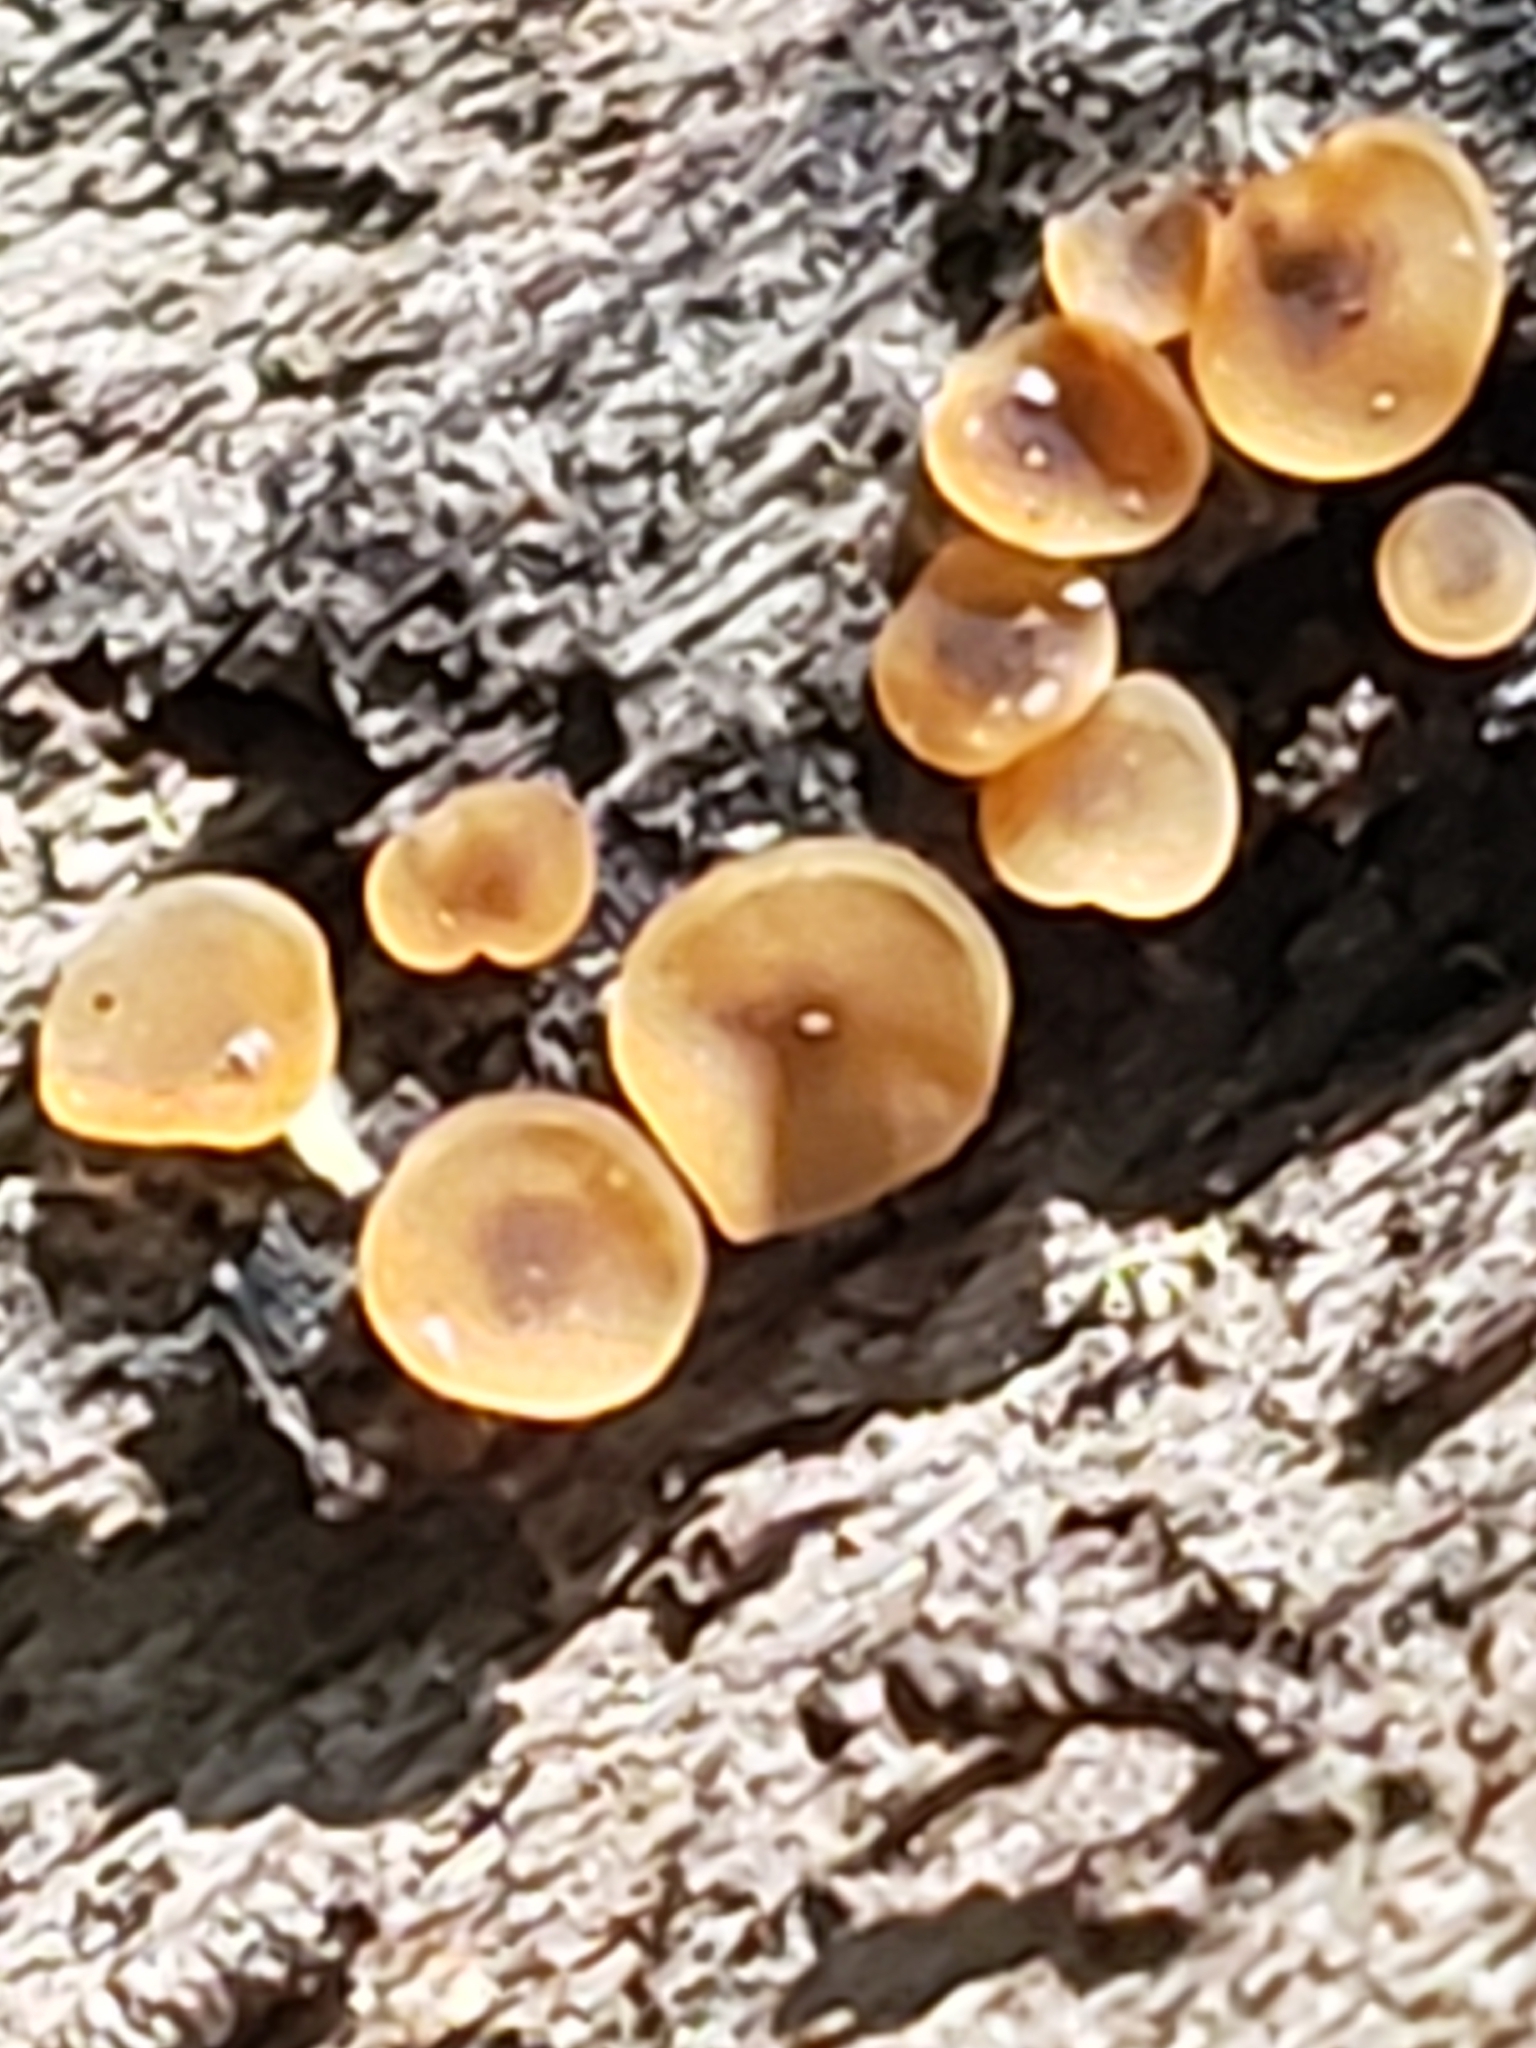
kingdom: Fungi
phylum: Ascomycota
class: Orbiliomycetes
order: Orbiliales
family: Orbiliaceae
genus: Orbilia
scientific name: Orbilia
